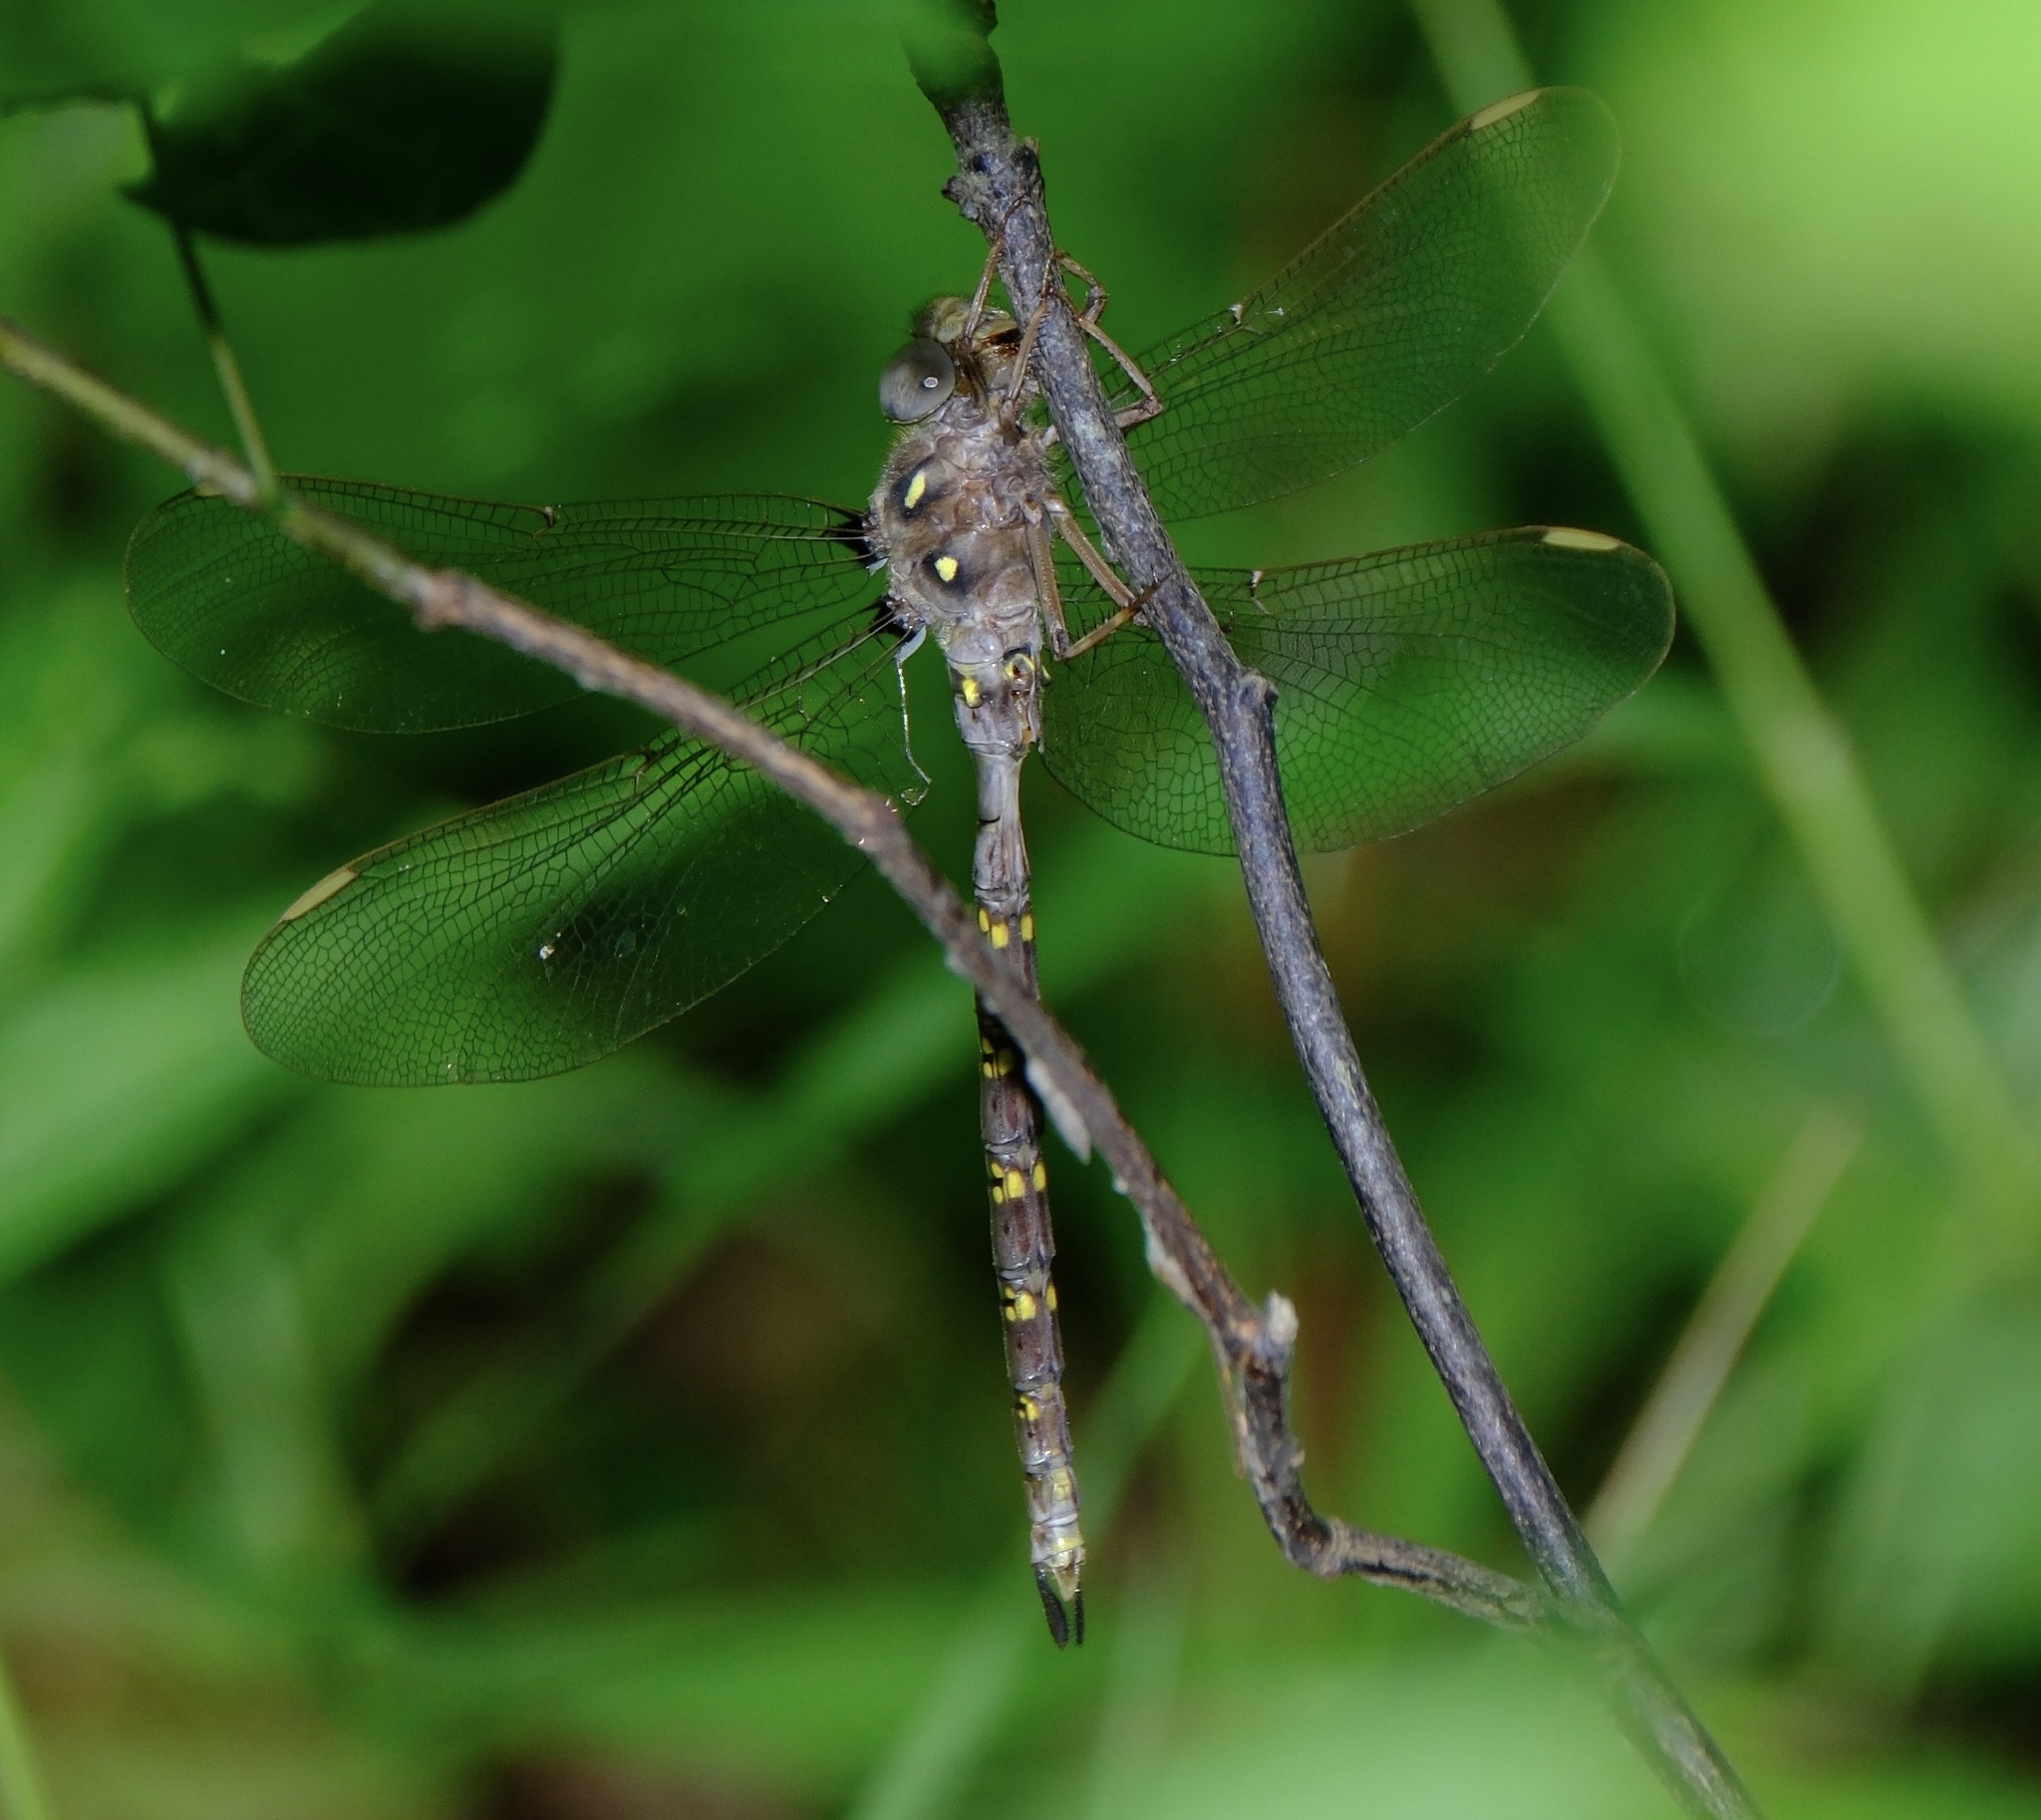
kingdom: Animalia
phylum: Arthropoda
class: Insecta
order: Odonata
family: Aeshnidae
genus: Boyeria
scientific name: Boyeria vinosa
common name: Fawn darner
